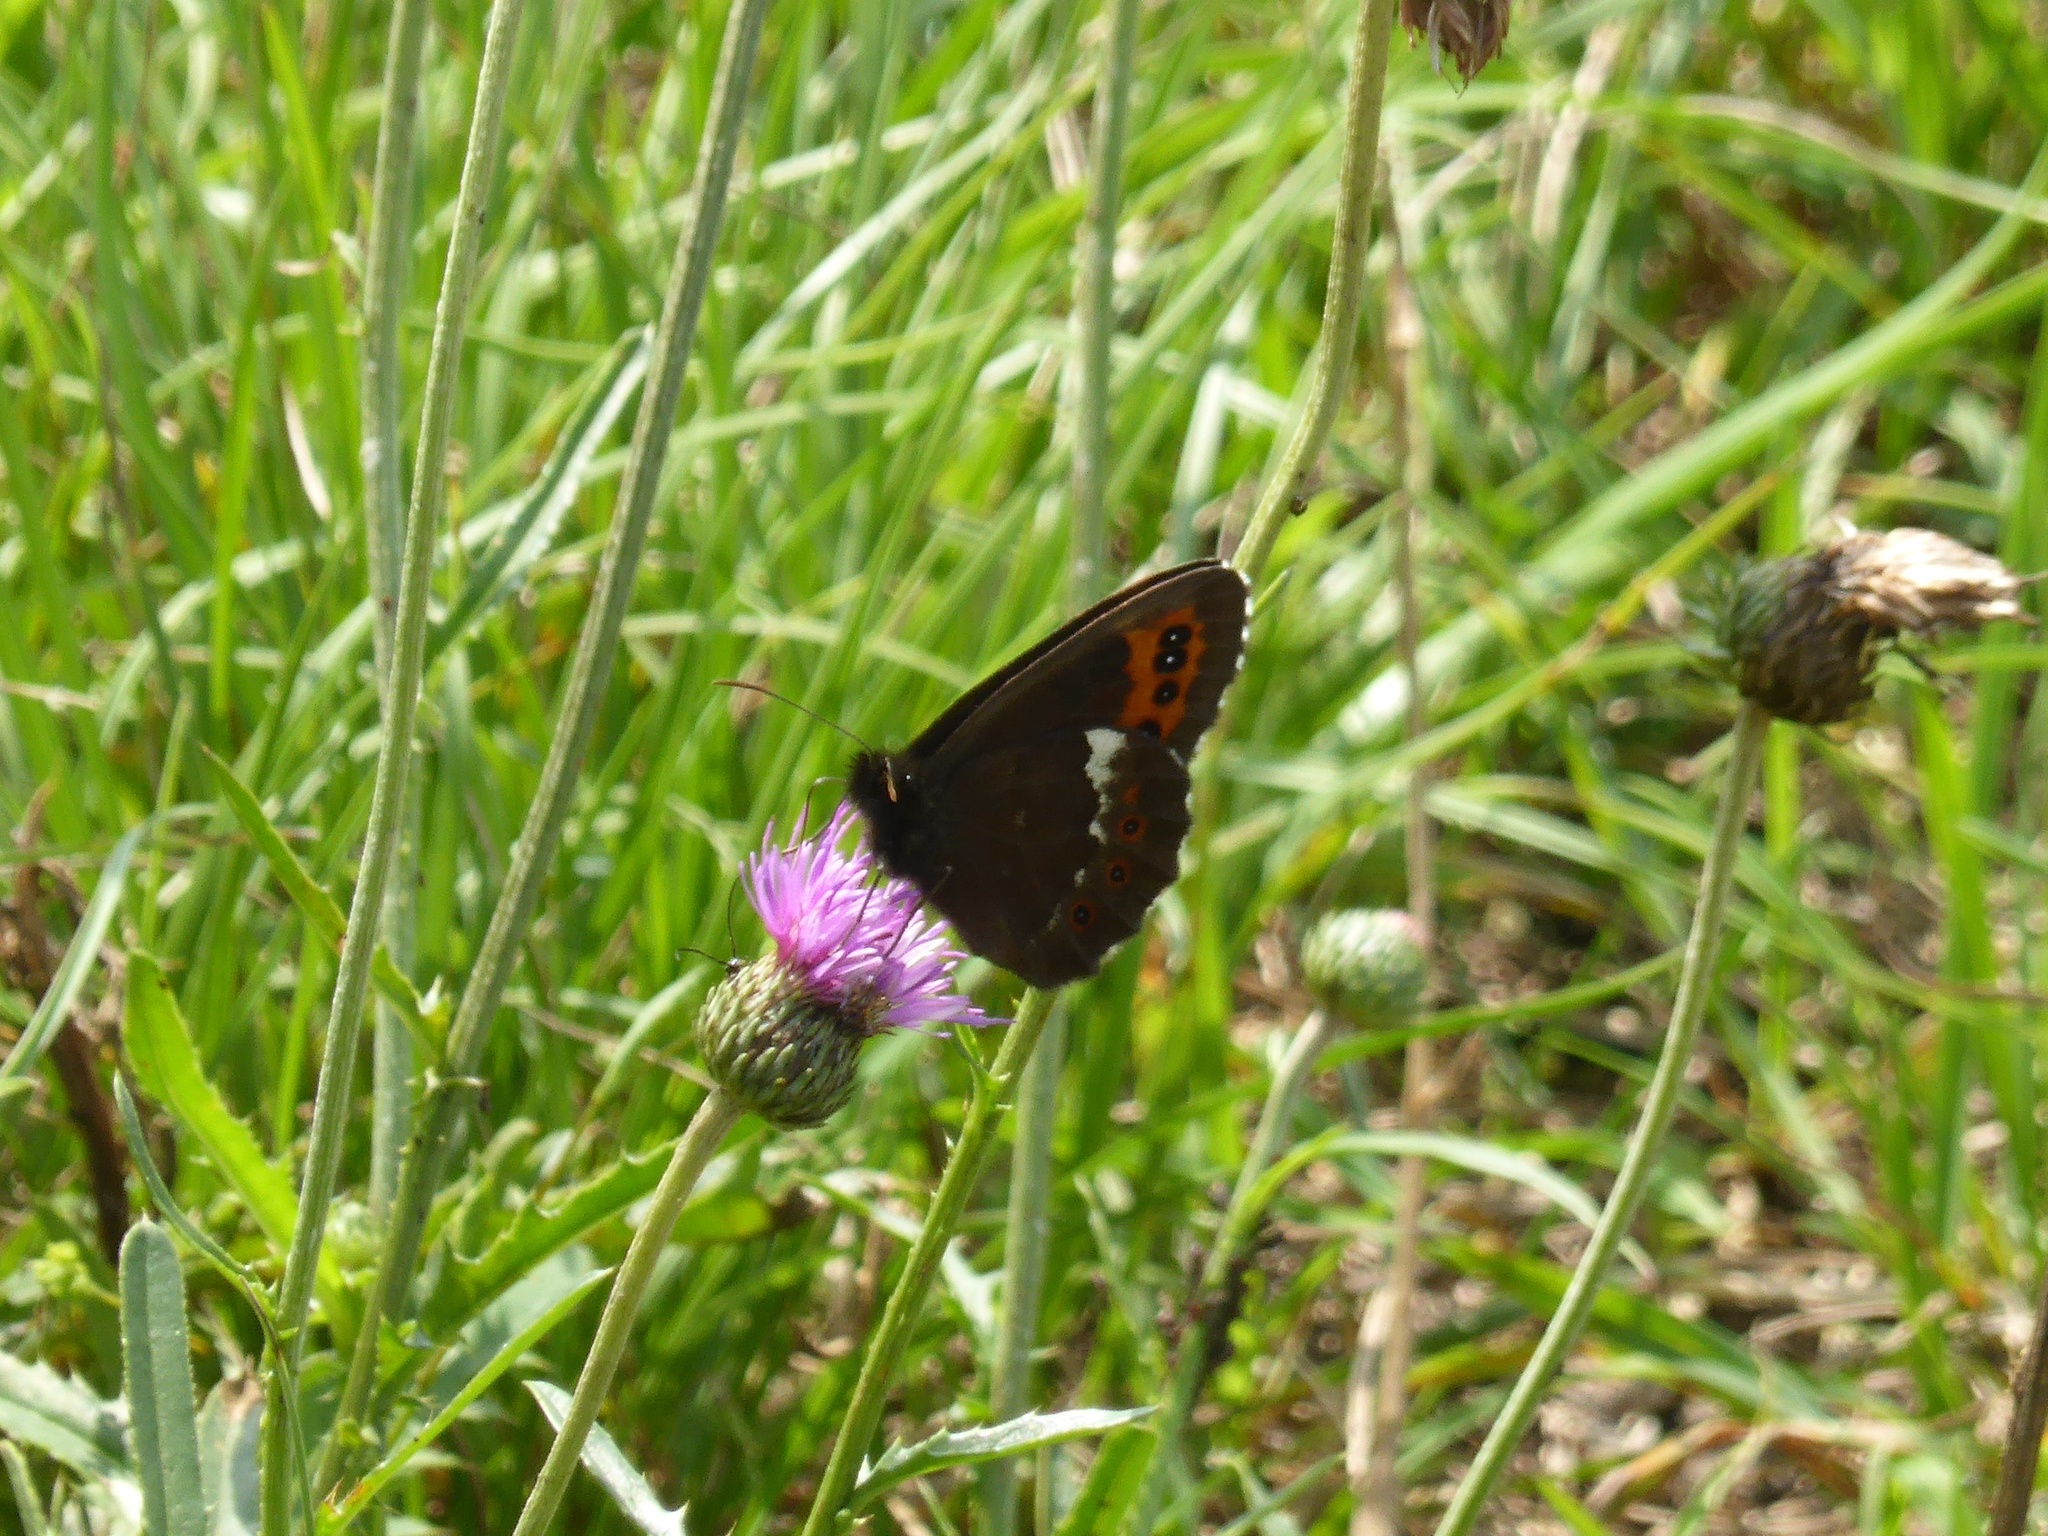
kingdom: Animalia
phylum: Arthropoda
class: Insecta
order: Lepidoptera
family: Nymphalidae
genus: Erebia
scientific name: Erebia ligea
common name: Arran brown
